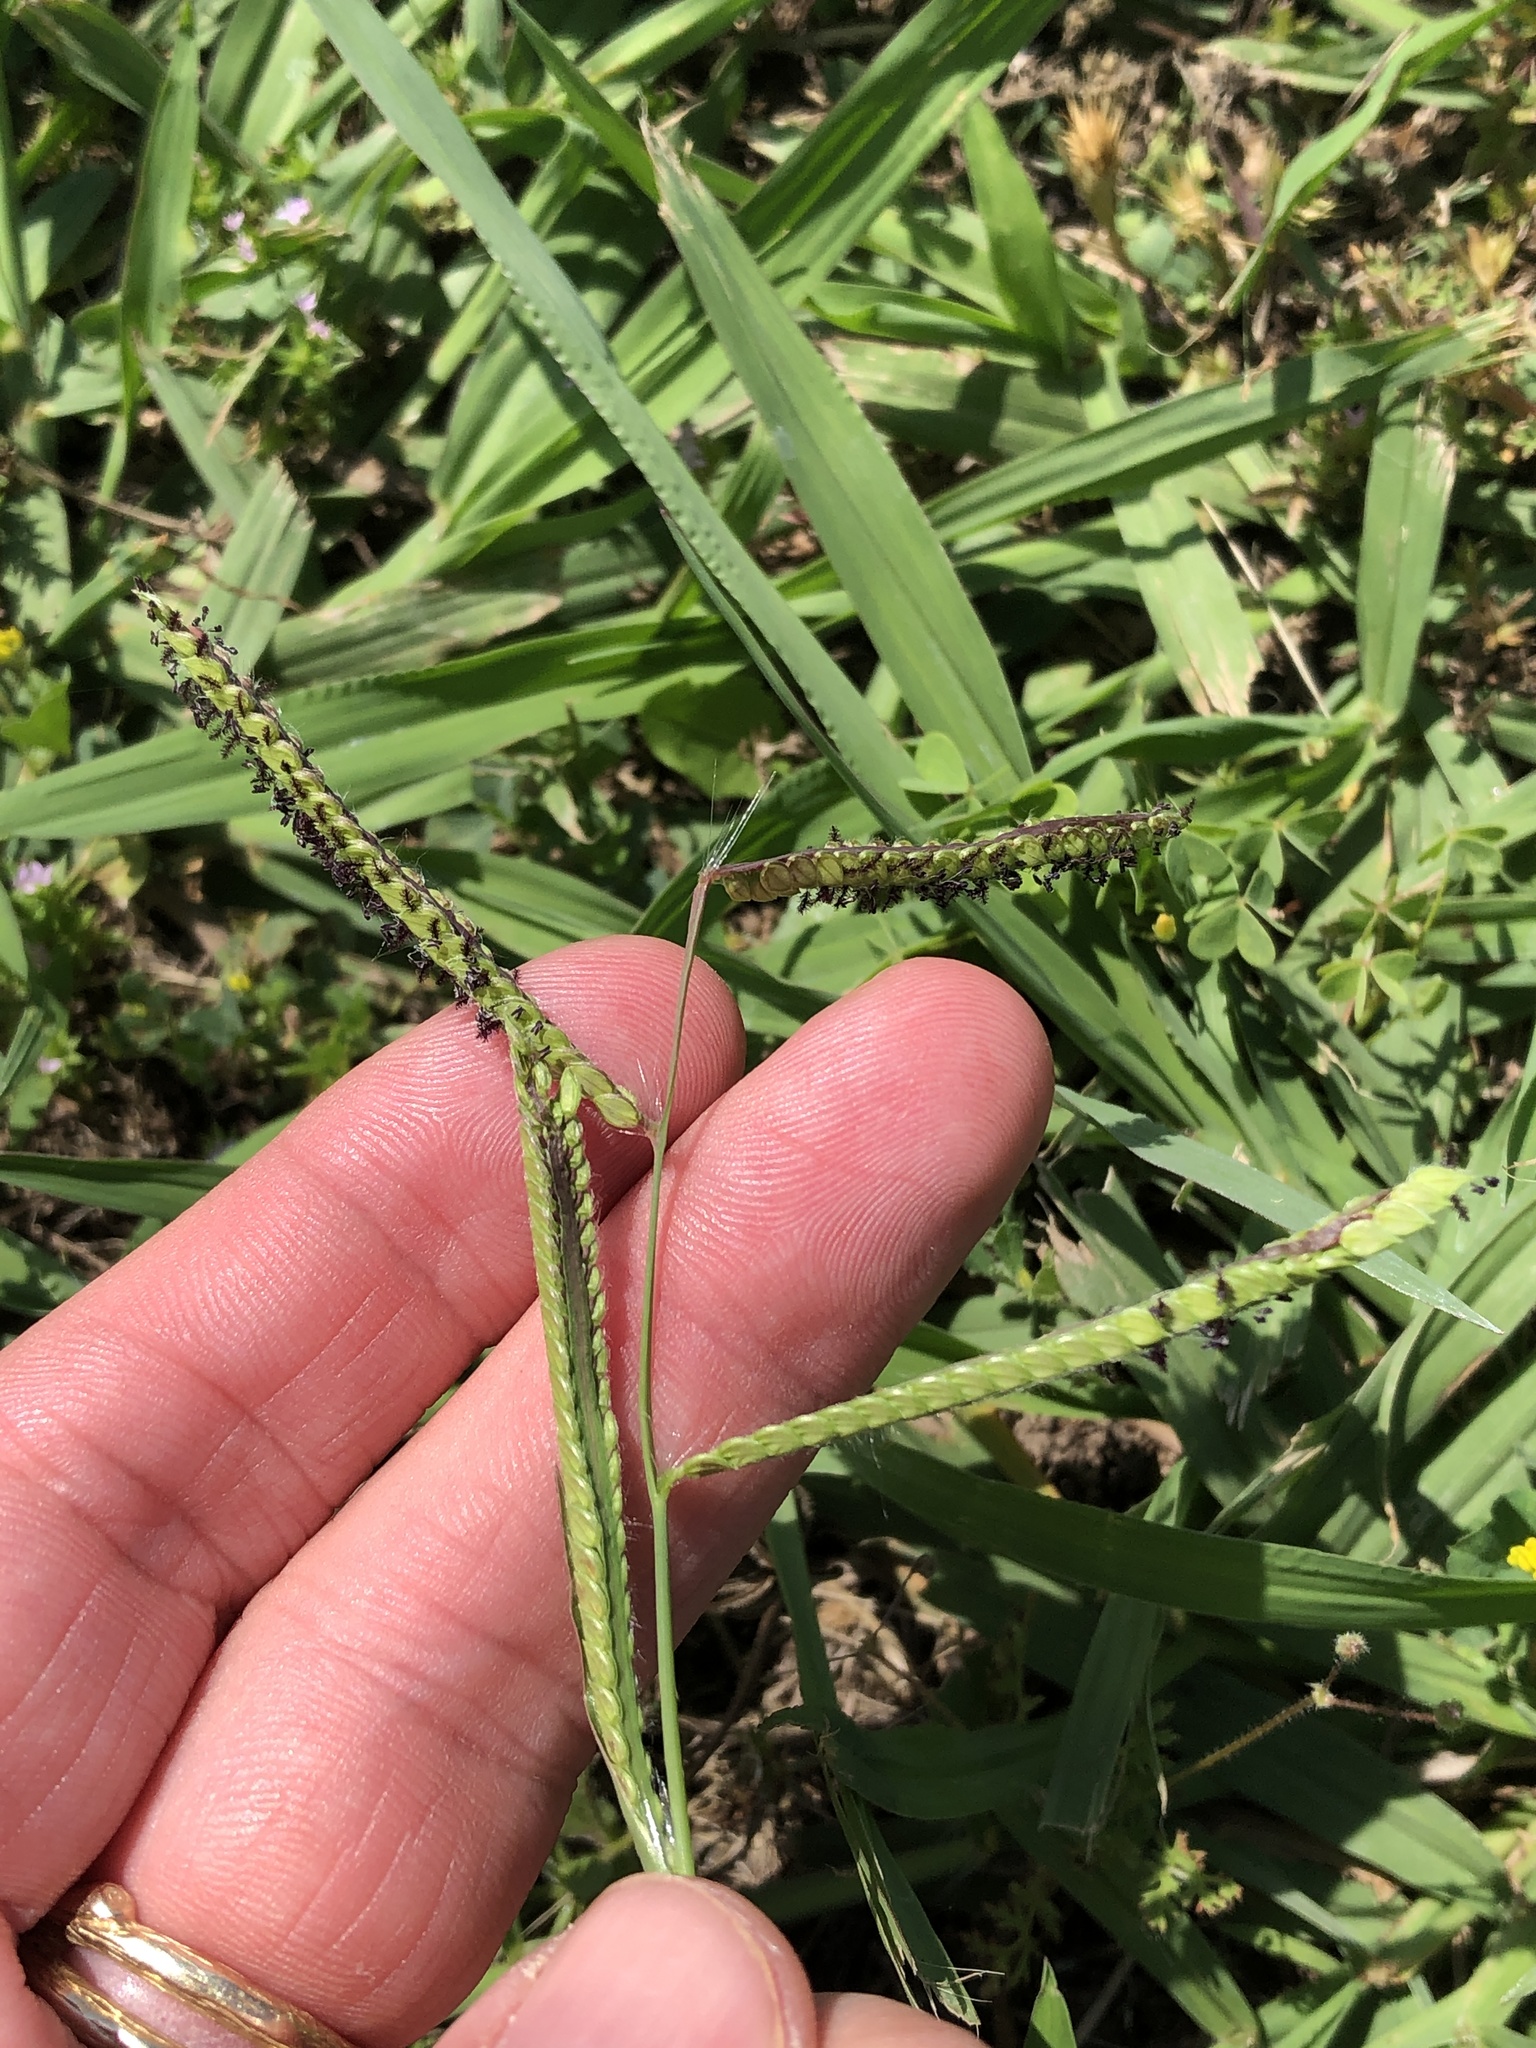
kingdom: Plantae
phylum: Tracheophyta
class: Liliopsida
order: Poales
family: Poaceae
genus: Paspalum
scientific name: Paspalum dilatatum
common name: Dallisgrass
